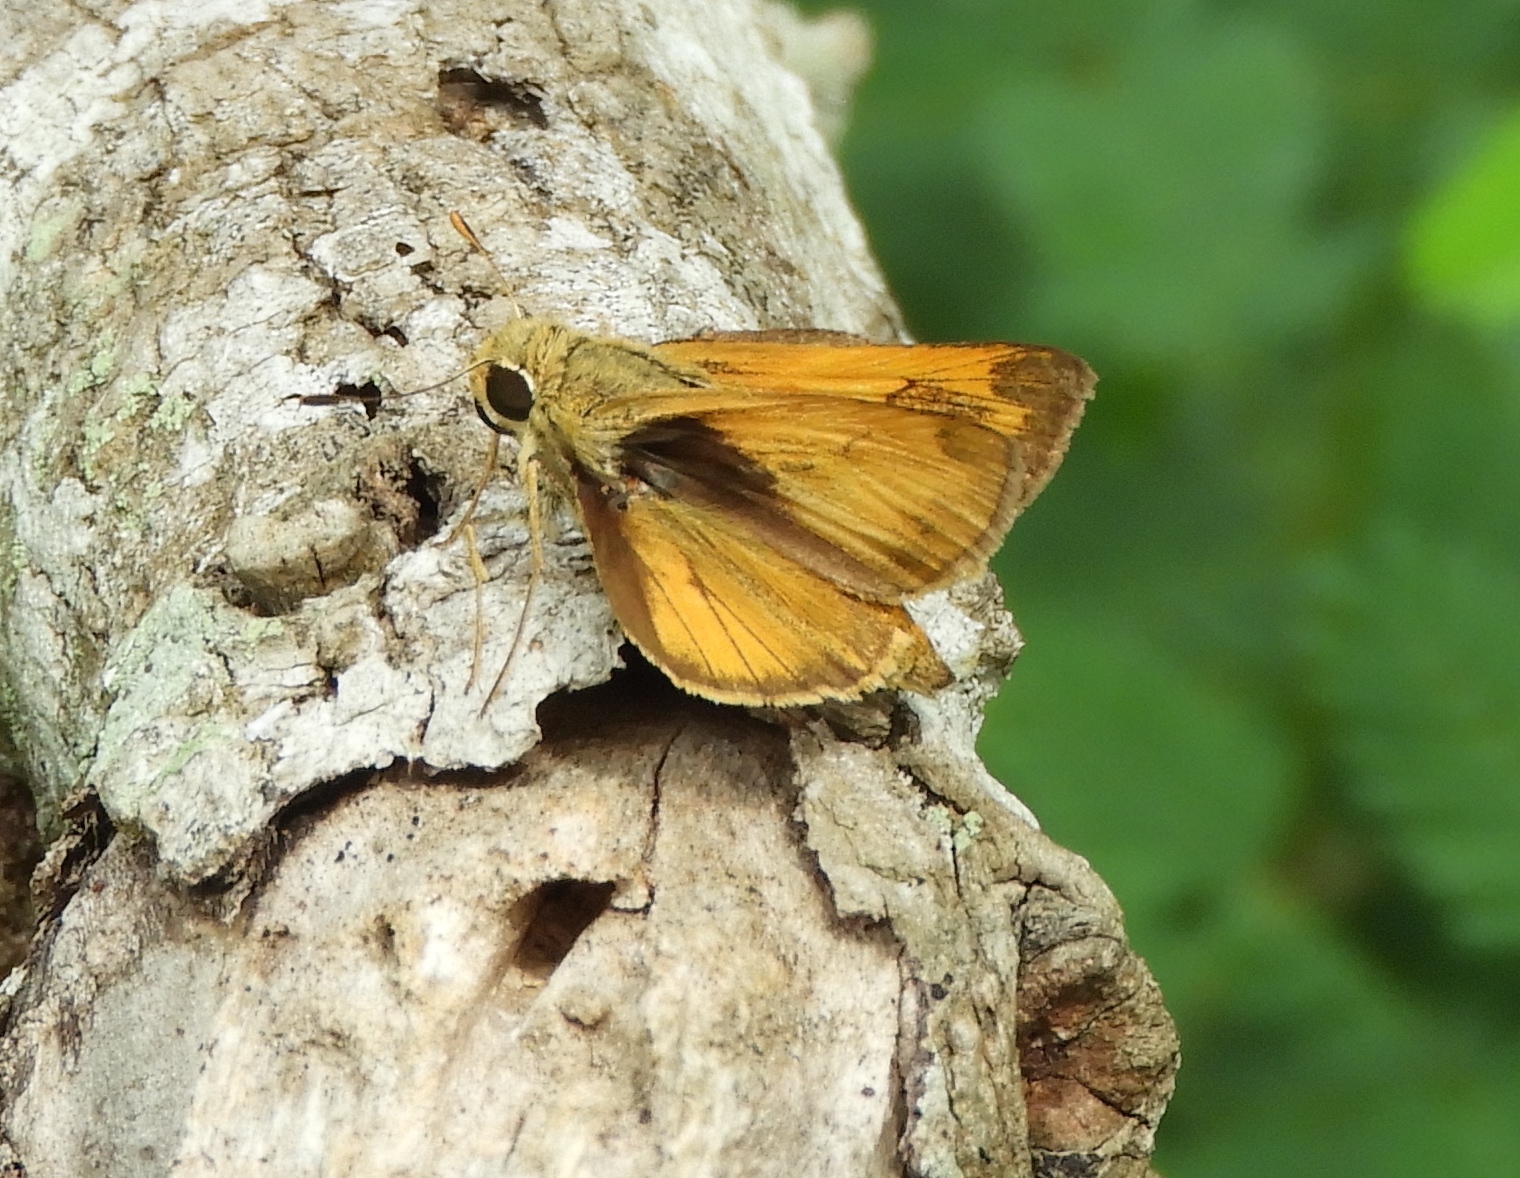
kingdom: Animalia
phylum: Arthropoda
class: Insecta
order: Lepidoptera
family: Hesperiidae
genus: Polites
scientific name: Polites vibex
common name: Whirlabout
